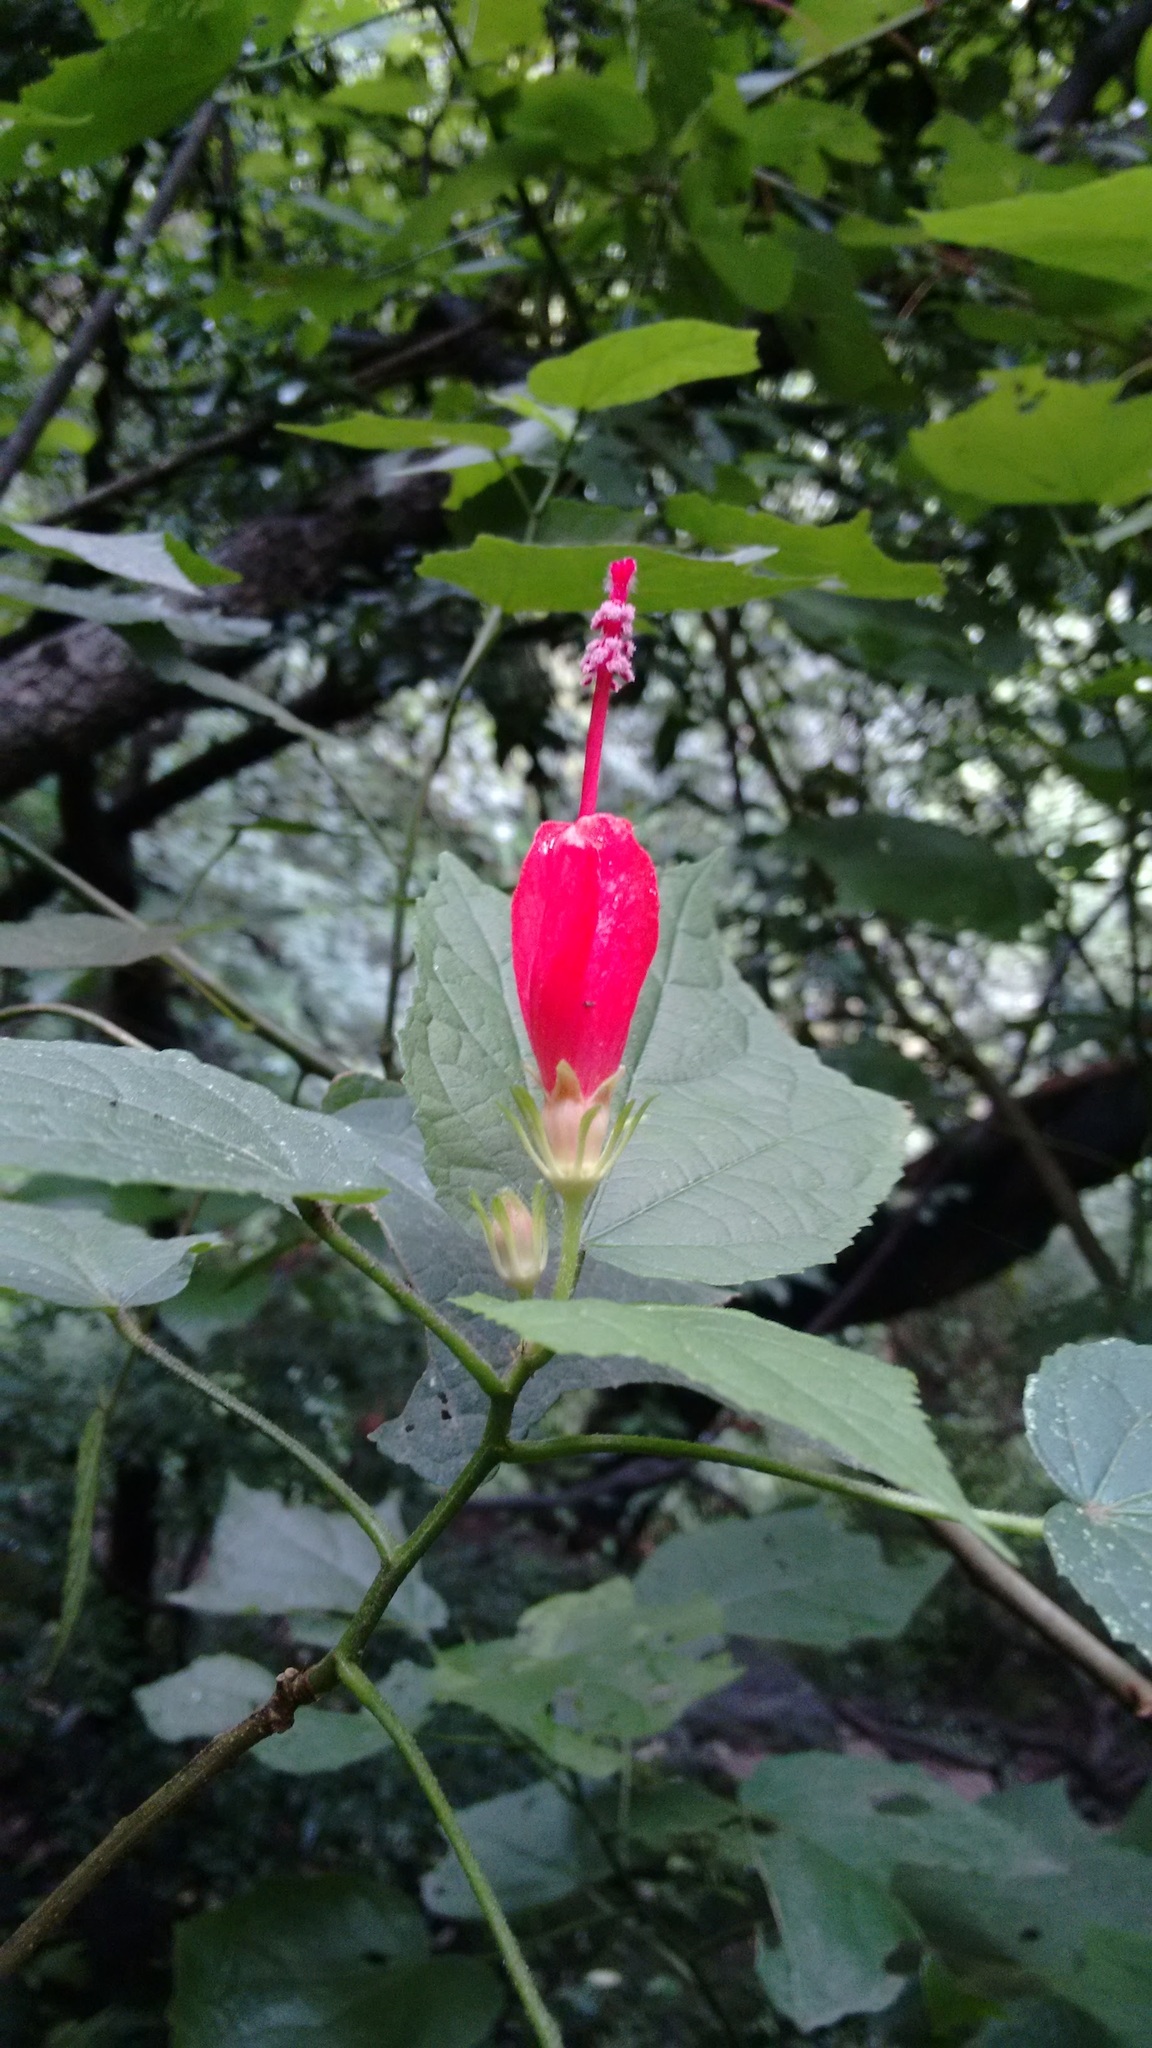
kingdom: Plantae
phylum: Tracheophyta
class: Magnoliopsida
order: Malvales
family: Malvaceae
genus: Malvaviscus
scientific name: Malvaviscus arboreus
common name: Wax mallow
